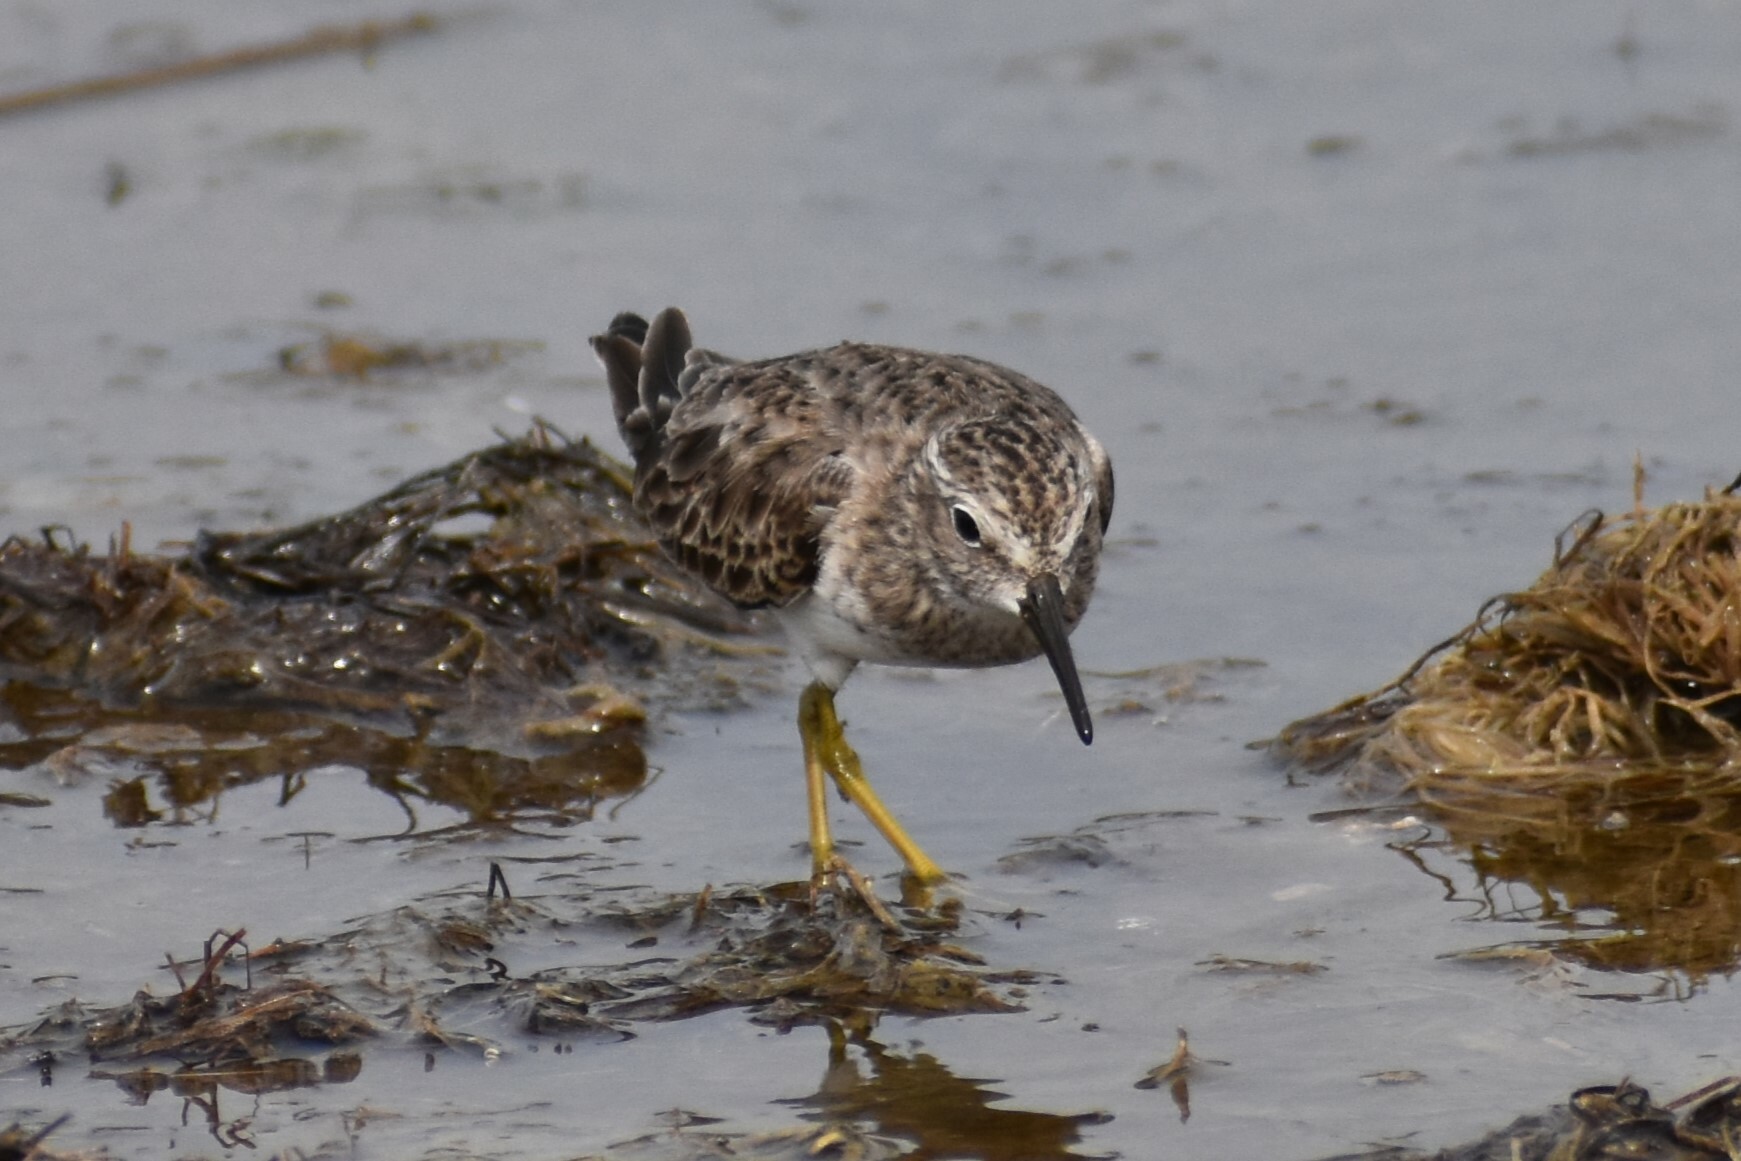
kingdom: Animalia
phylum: Chordata
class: Aves
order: Charadriiformes
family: Scolopacidae
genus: Calidris
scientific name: Calidris minutilla
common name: Least sandpiper
